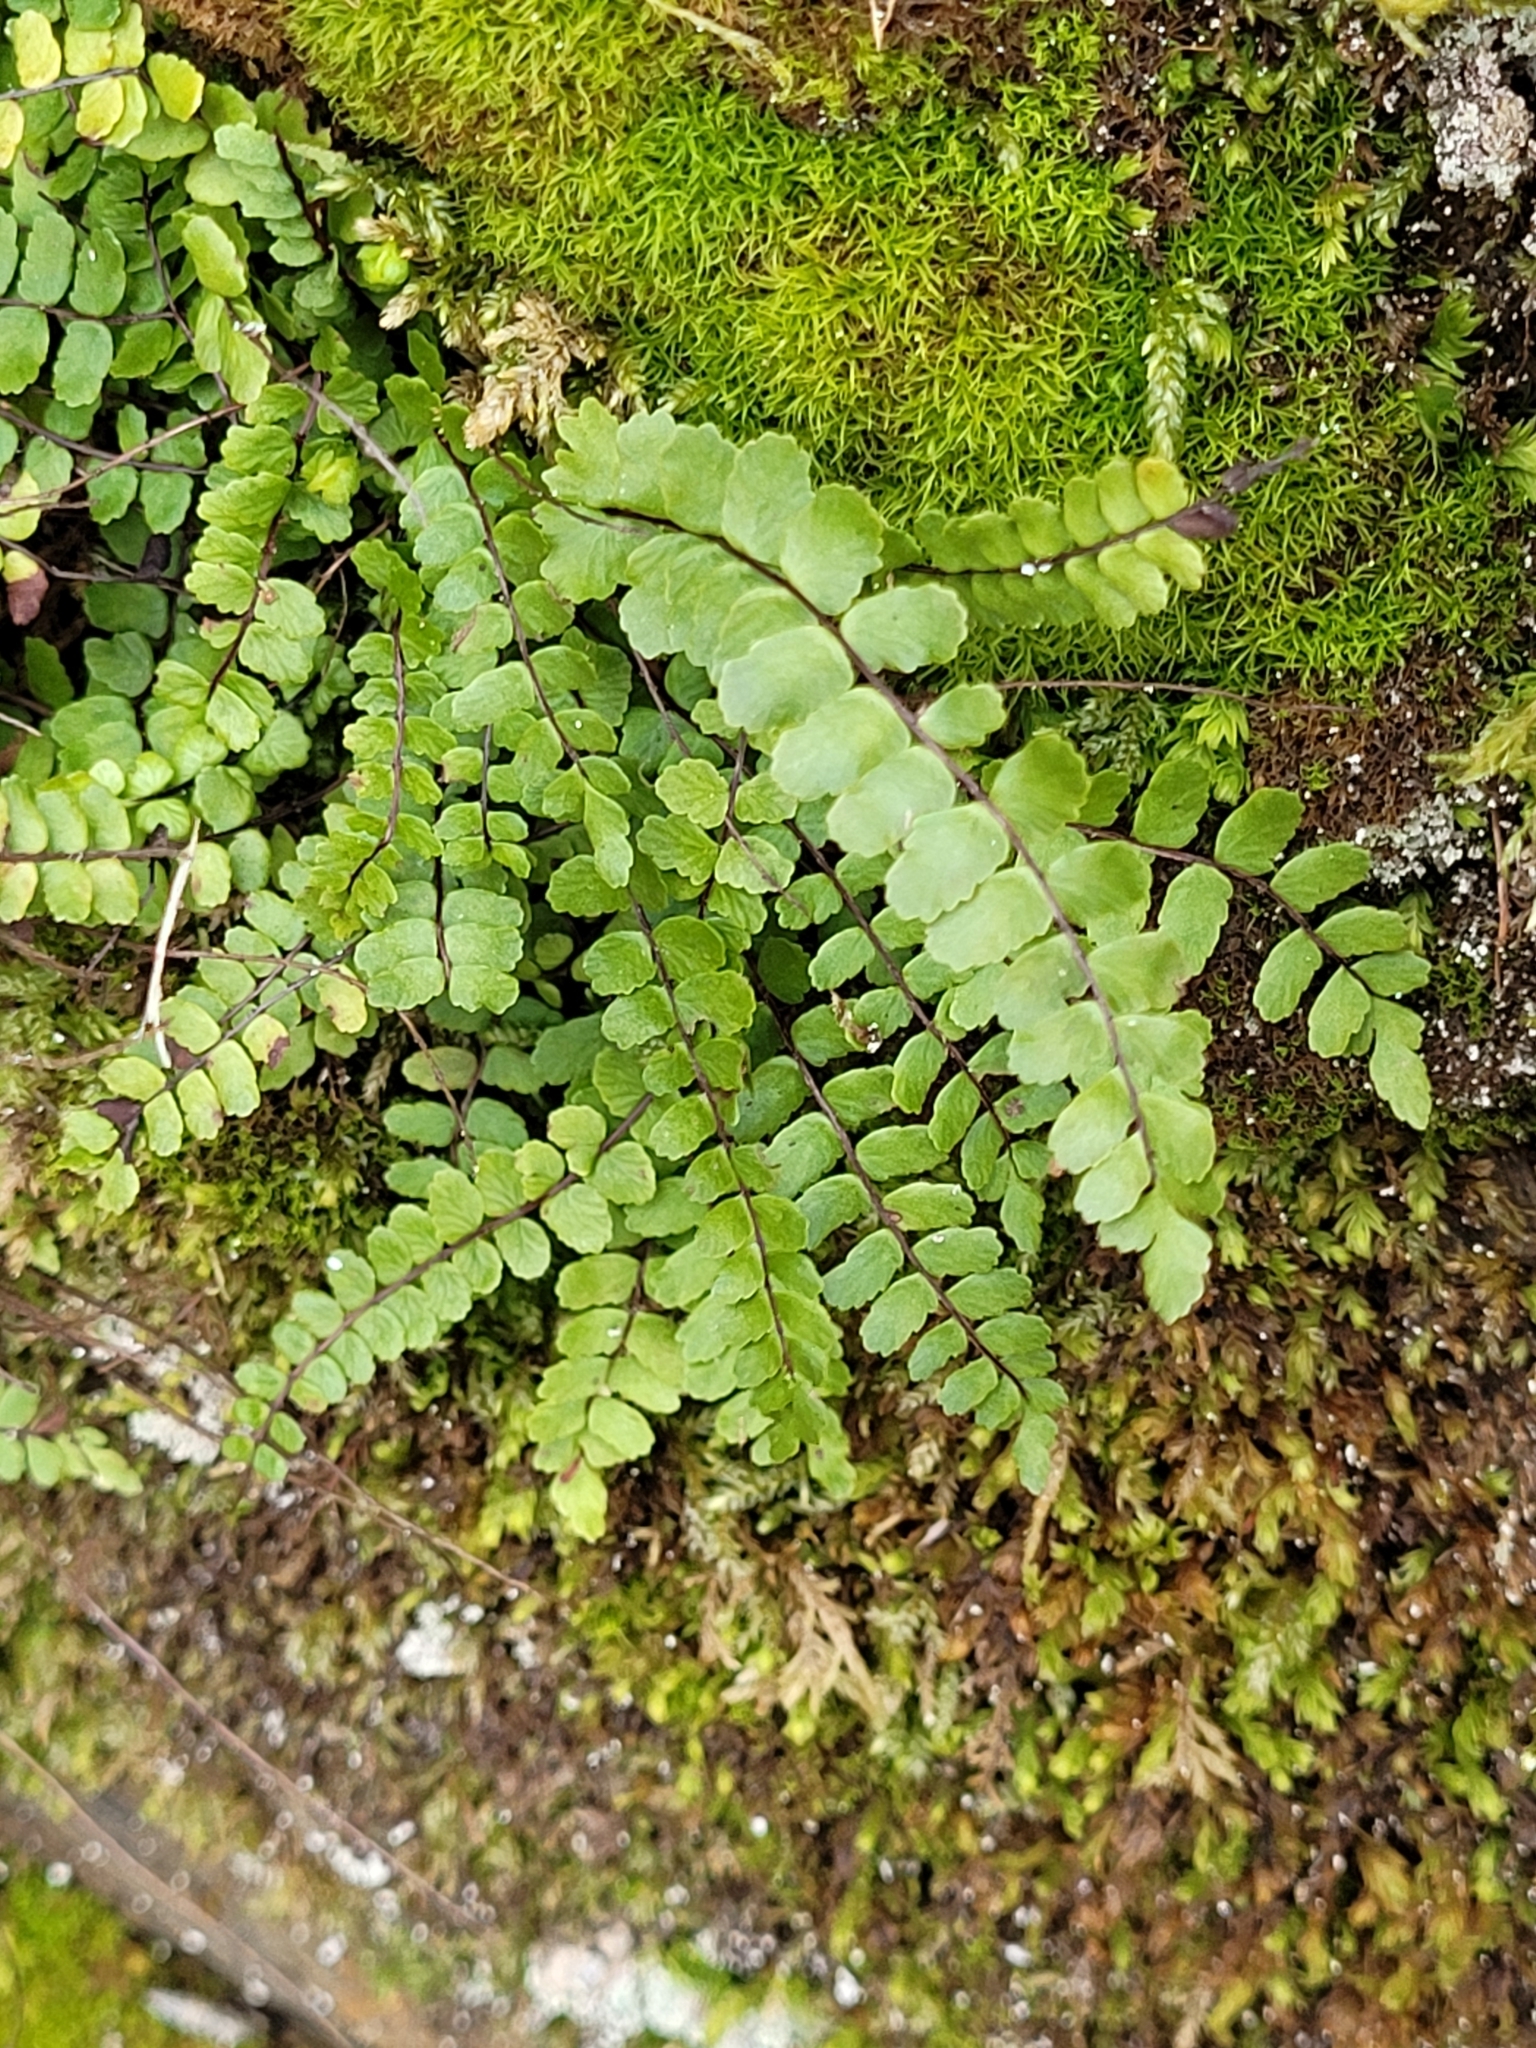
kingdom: Plantae
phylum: Tracheophyta
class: Polypodiopsida
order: Polypodiales
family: Aspleniaceae
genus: Asplenium
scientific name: Asplenium trichomanes
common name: Maidenhair spleenwort
